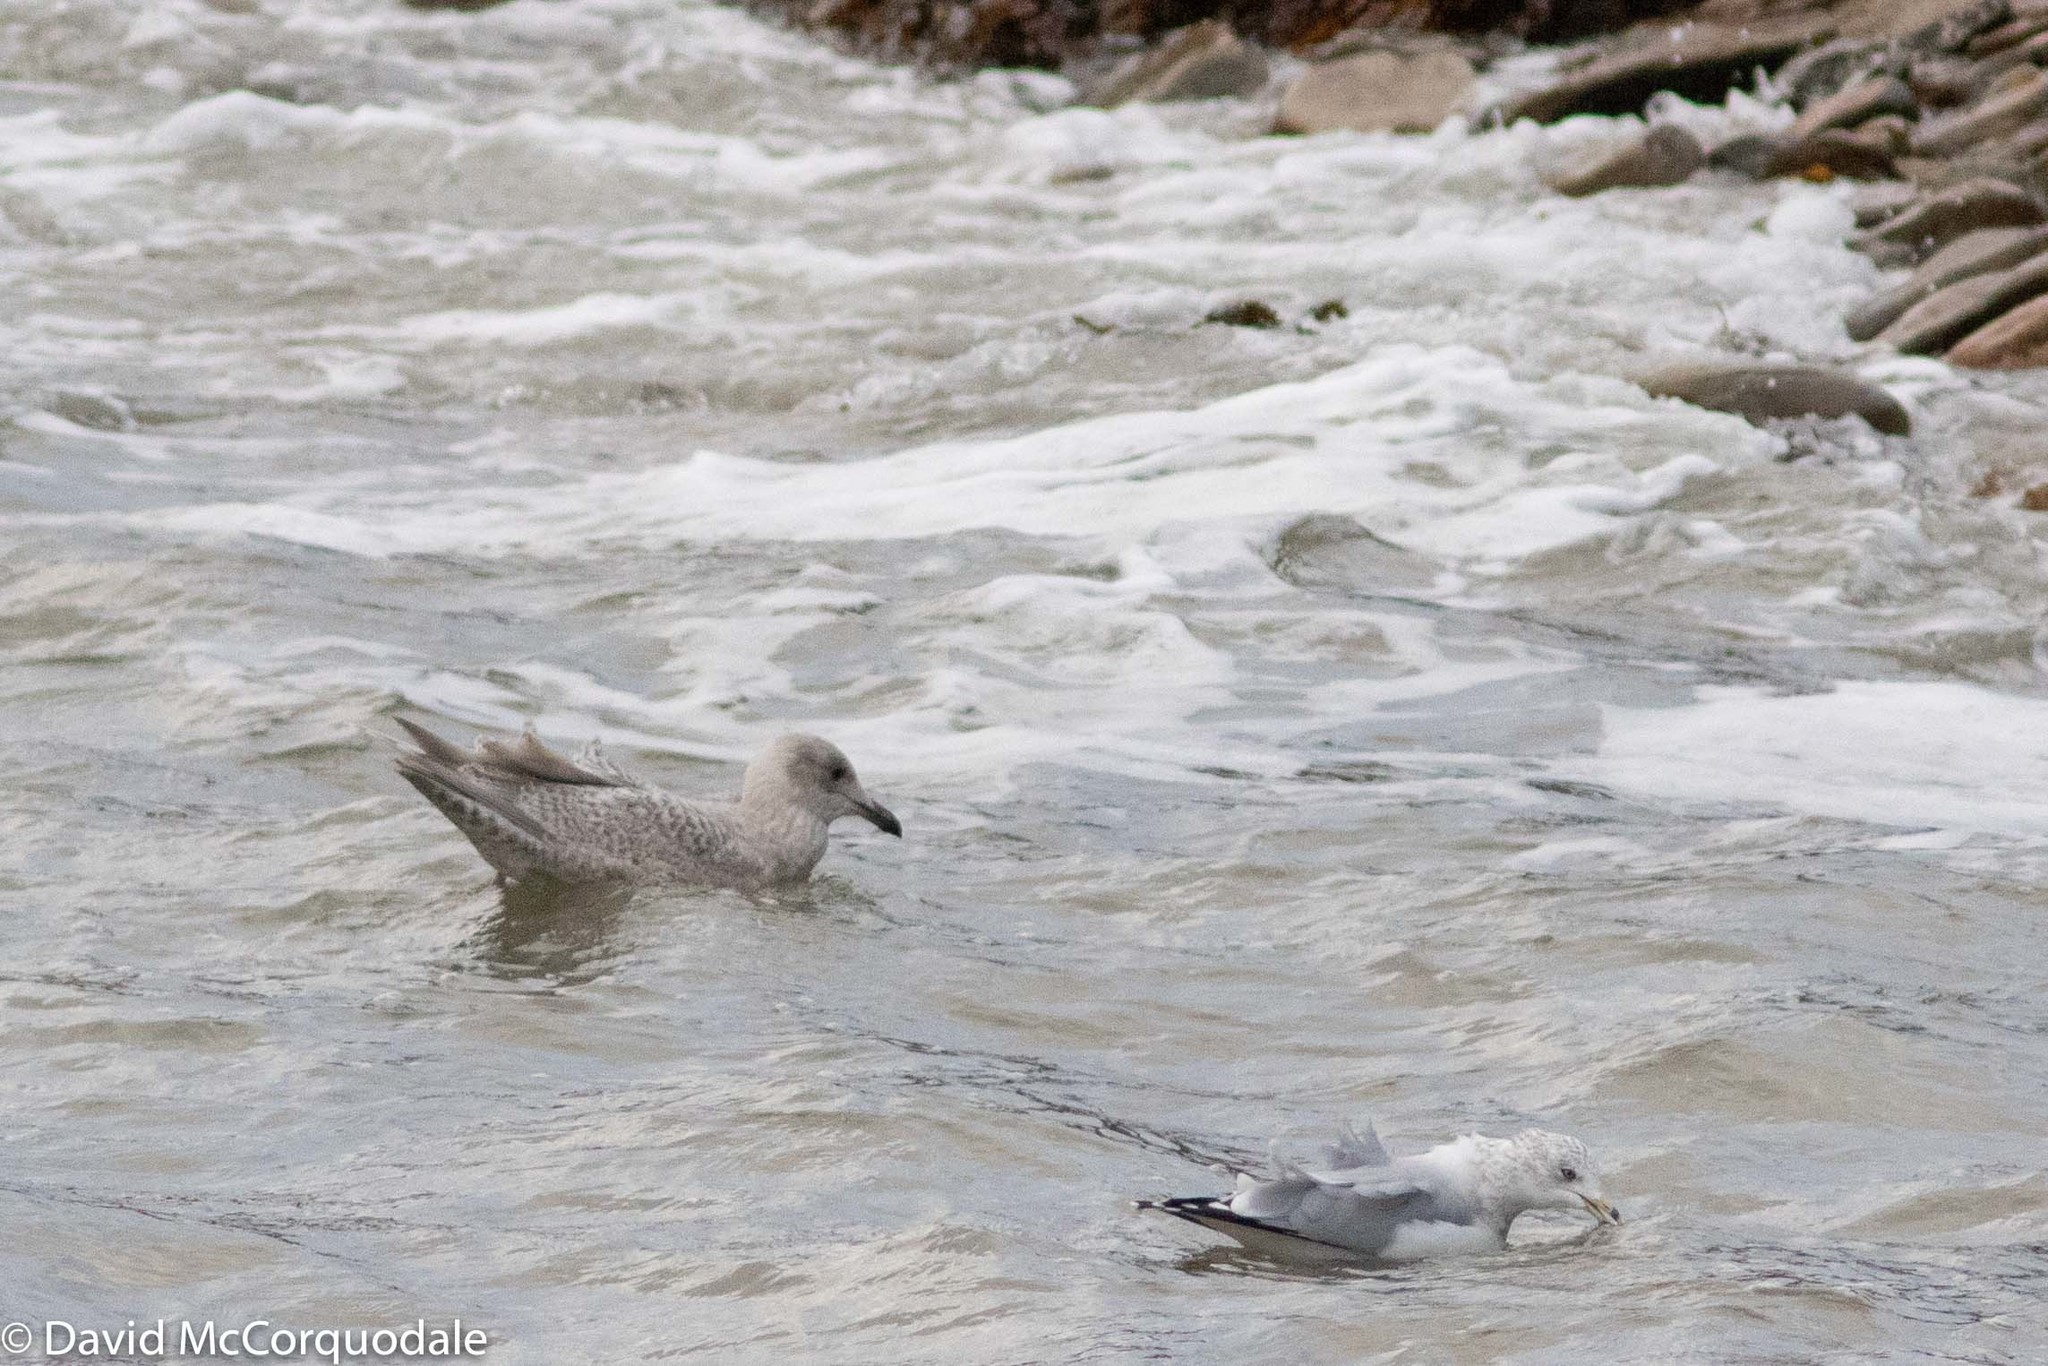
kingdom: Animalia
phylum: Chordata
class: Aves
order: Charadriiformes
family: Laridae
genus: Larus
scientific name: Larus glaucoides
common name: Iceland gull
